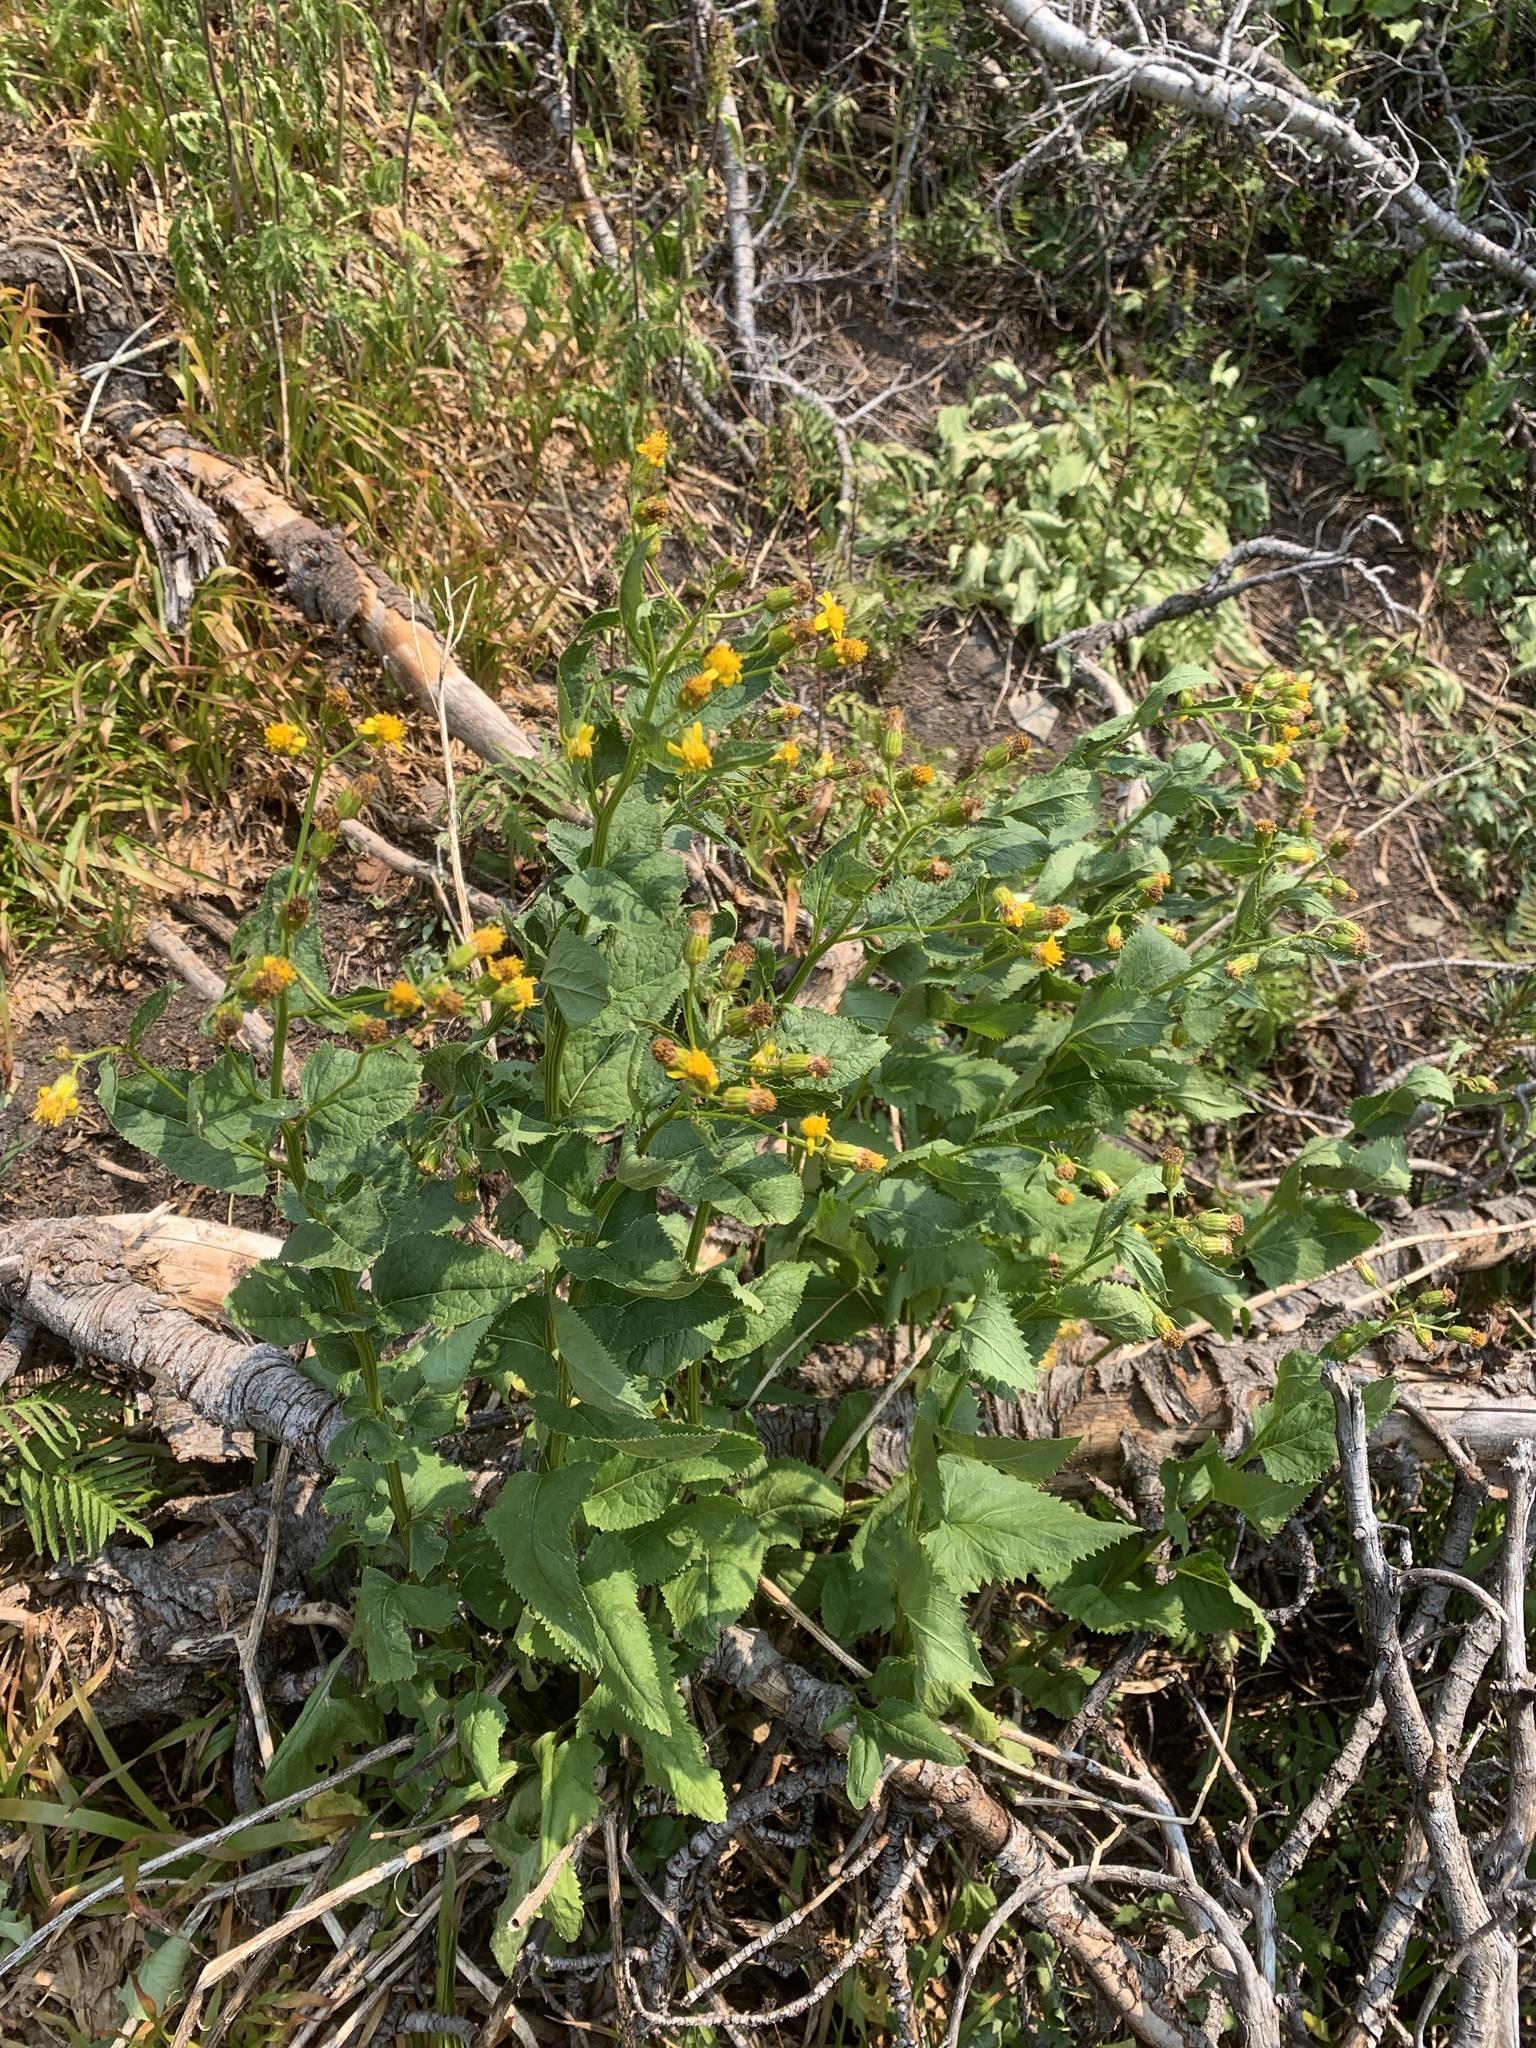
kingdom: Plantae
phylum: Tracheophyta
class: Magnoliopsida
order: Asterales
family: Asteraceae
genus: Senecio
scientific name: Senecio triangularis
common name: Arrowleaf butterweed
